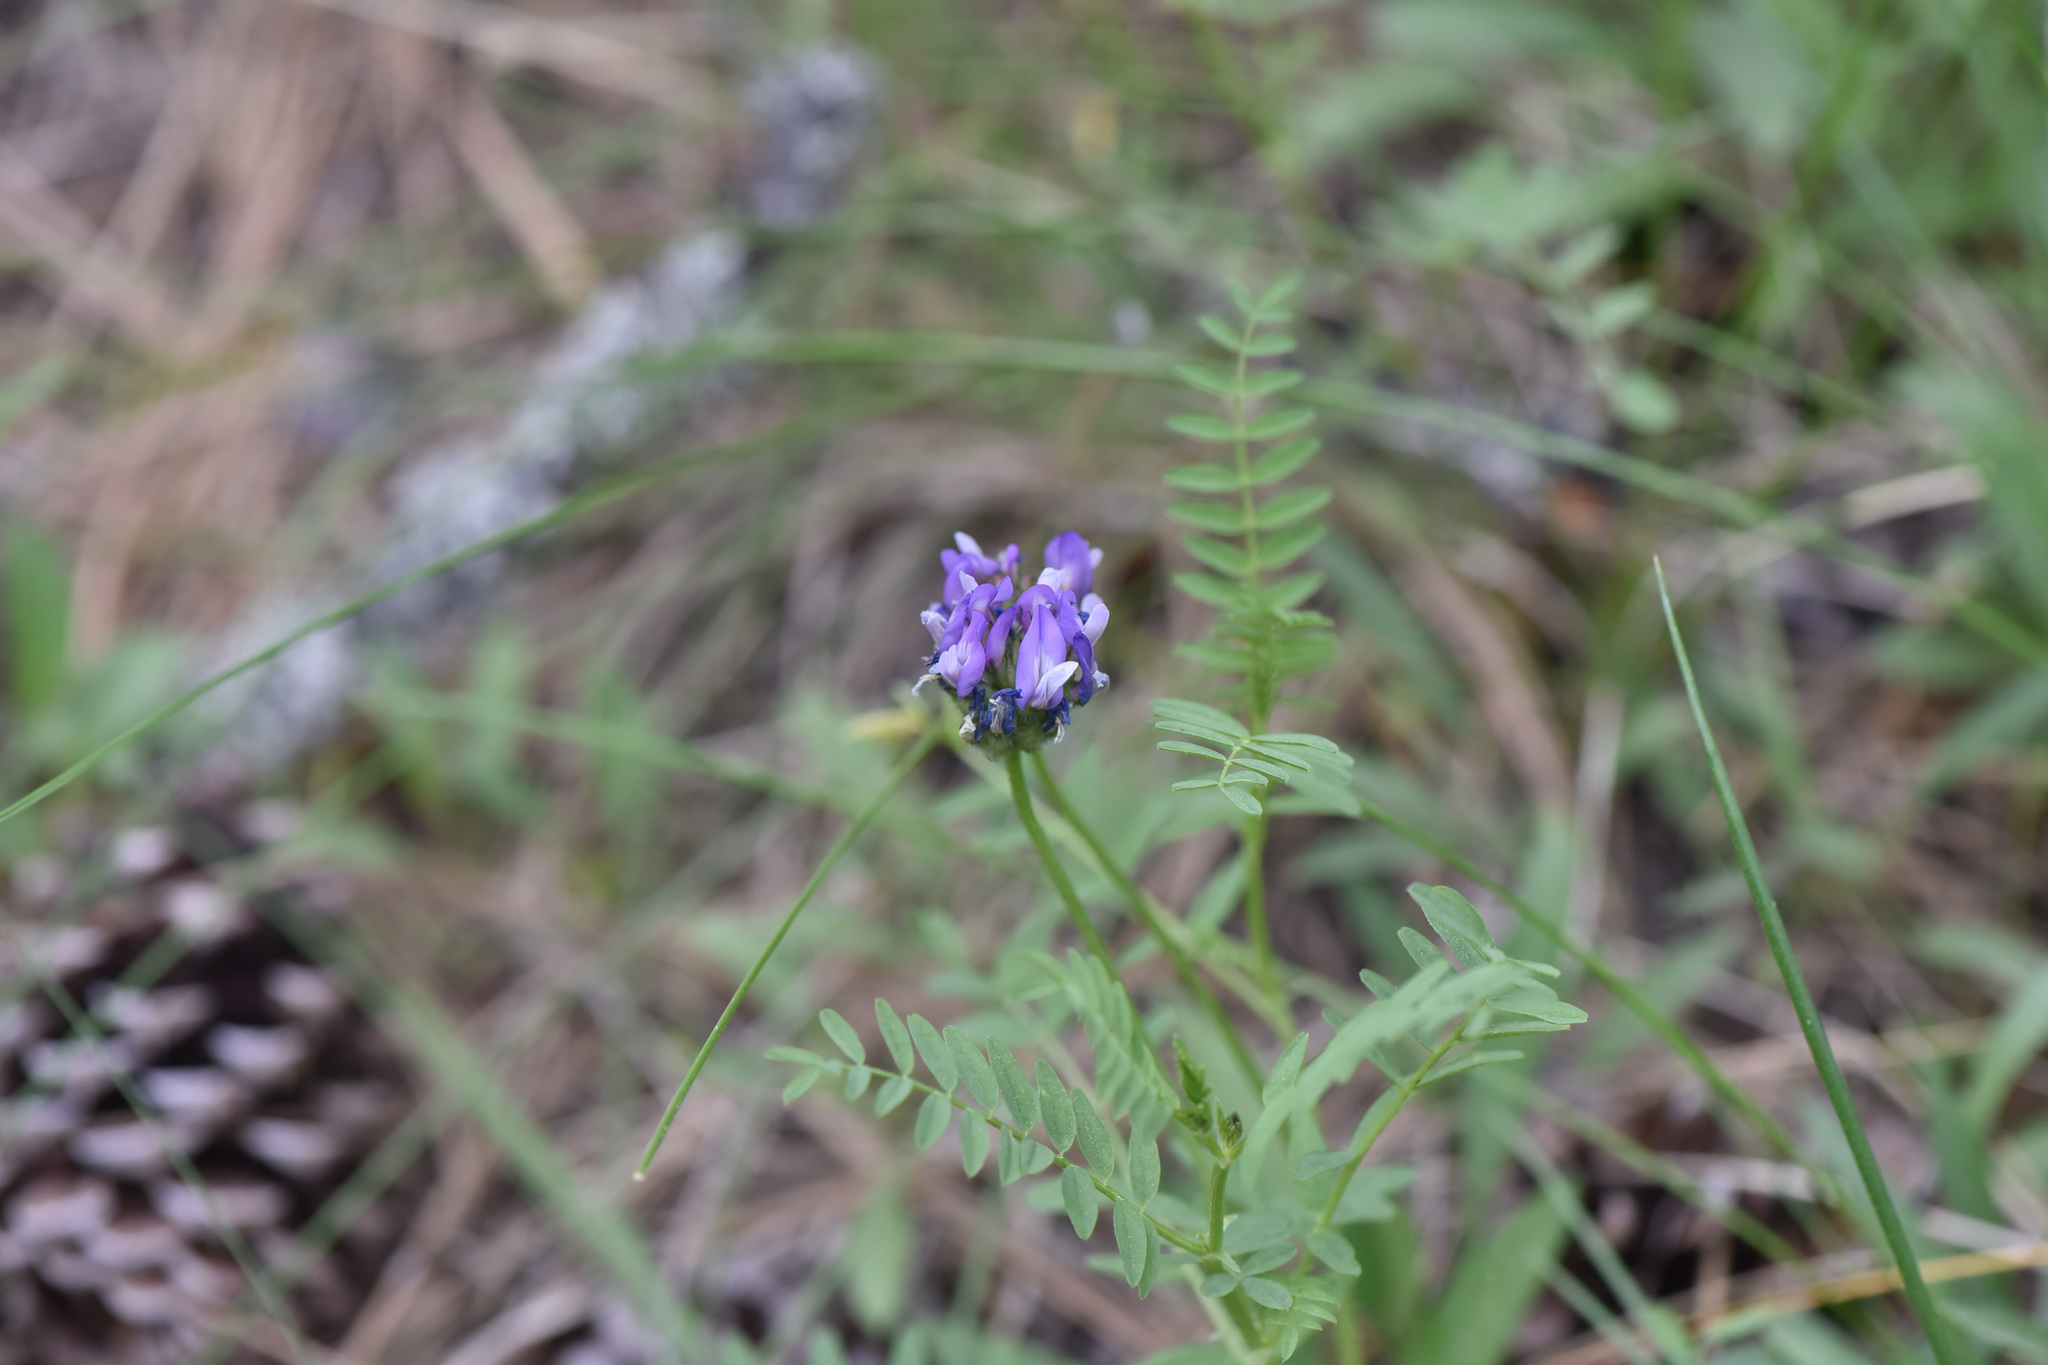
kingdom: Plantae
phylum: Tracheophyta
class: Magnoliopsida
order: Fabales
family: Fabaceae
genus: Astragalus
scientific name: Astragalus agrestis
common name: Field milk-vetch
